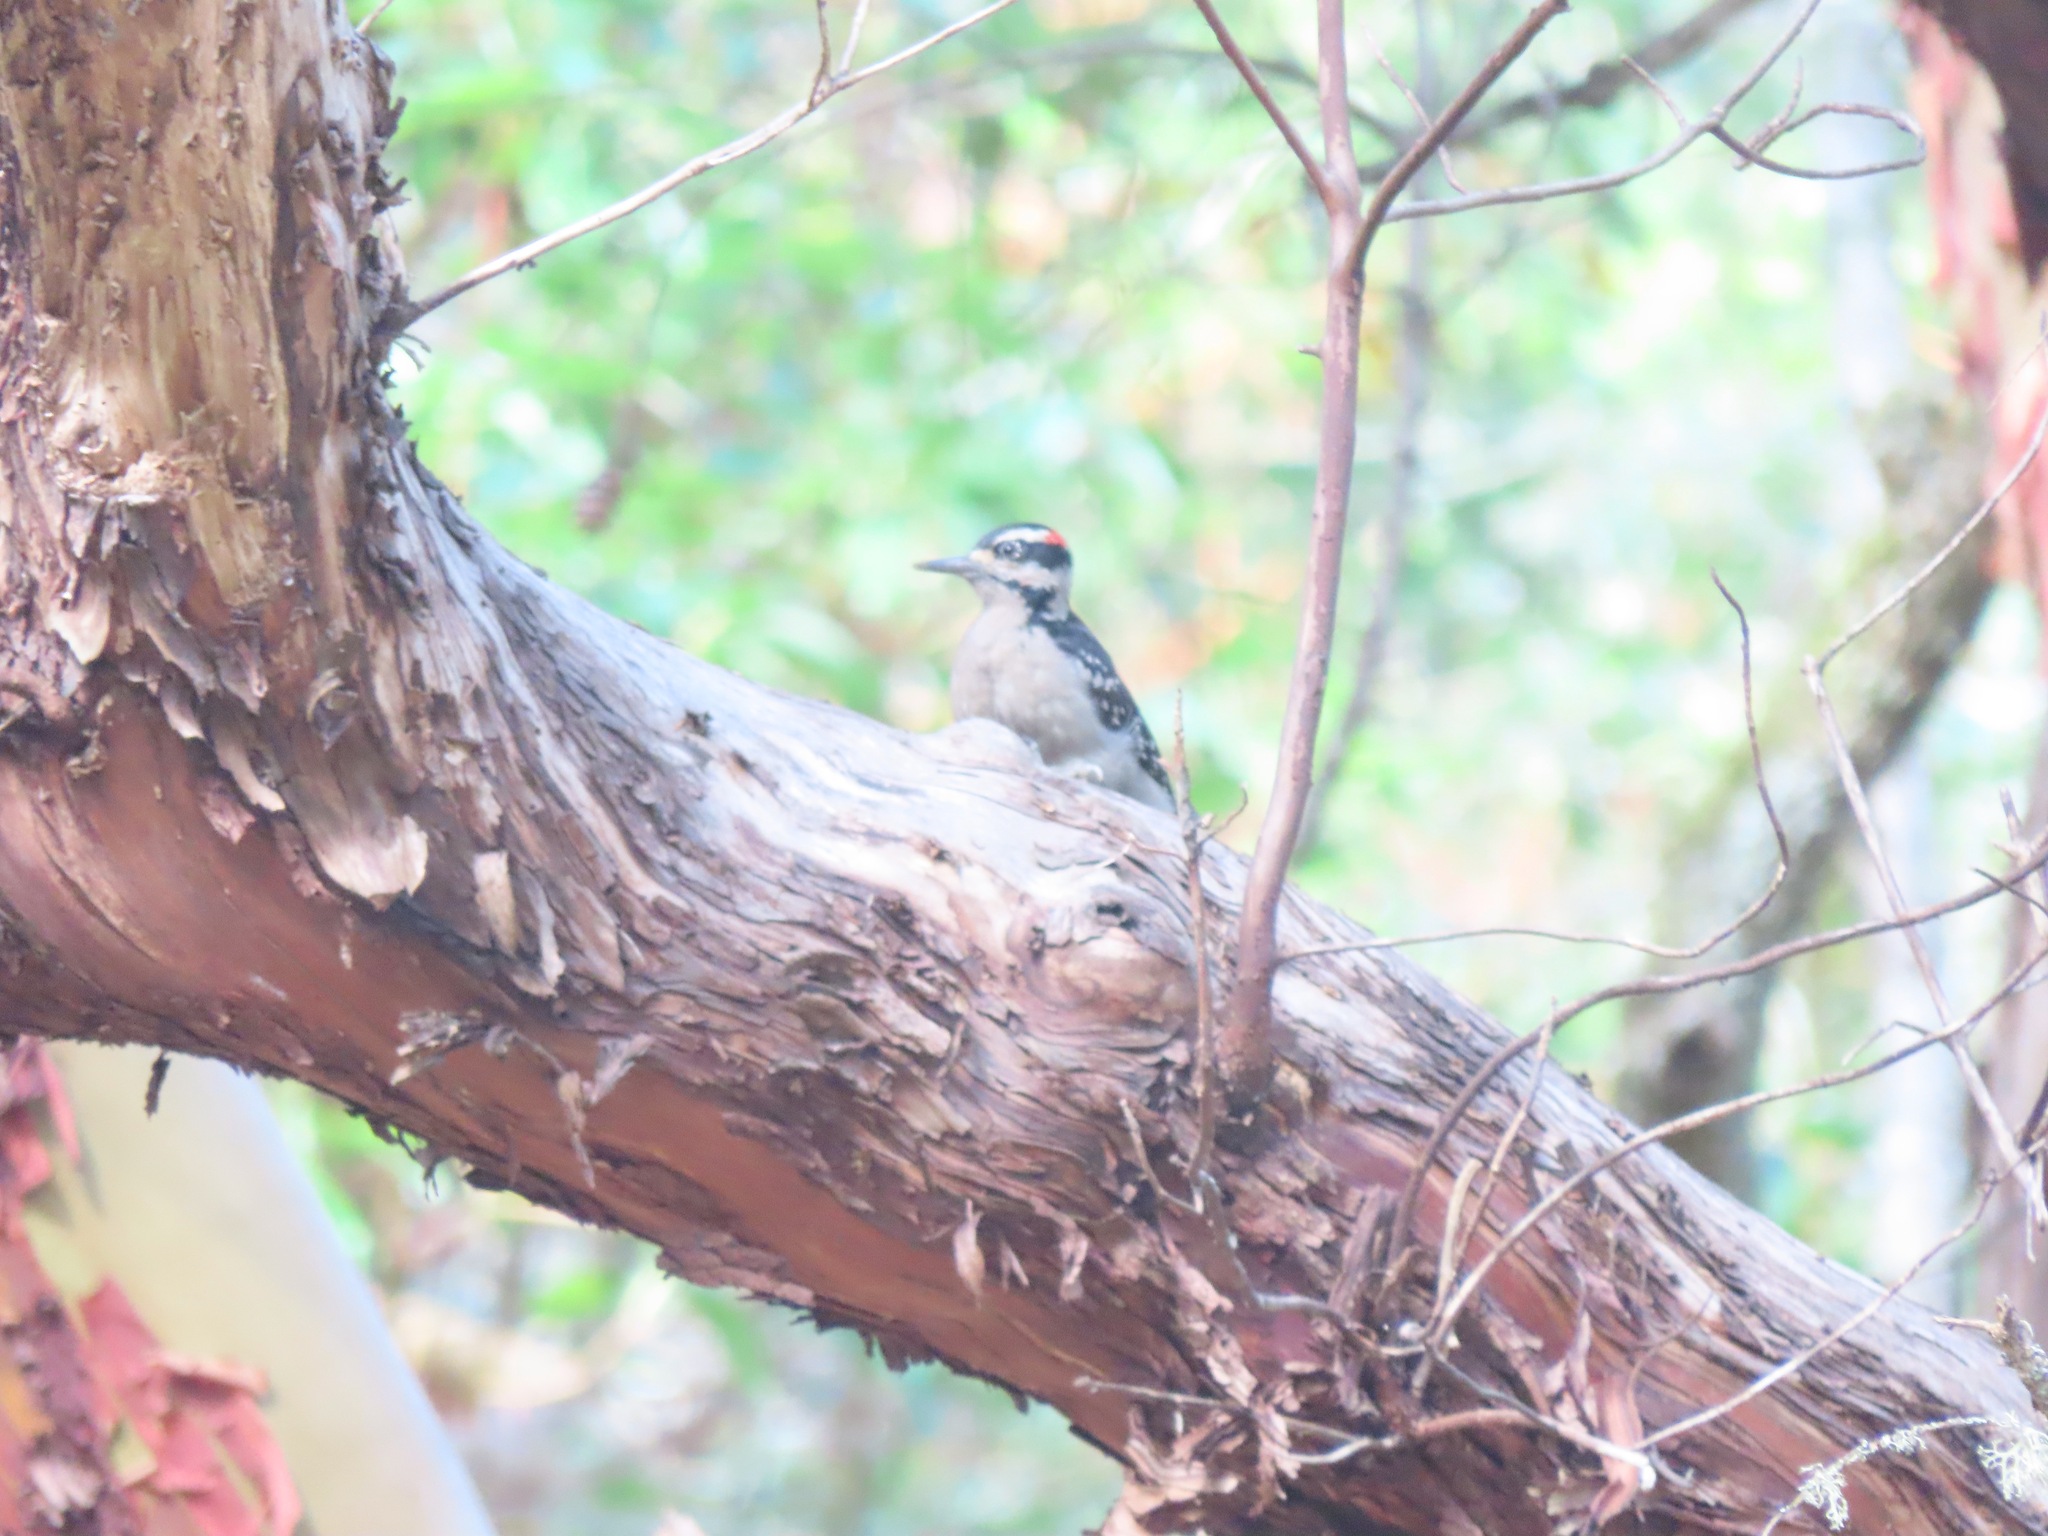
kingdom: Animalia
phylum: Chordata
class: Aves
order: Piciformes
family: Picidae
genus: Leuconotopicus
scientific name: Leuconotopicus villosus
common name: Hairy woodpecker
